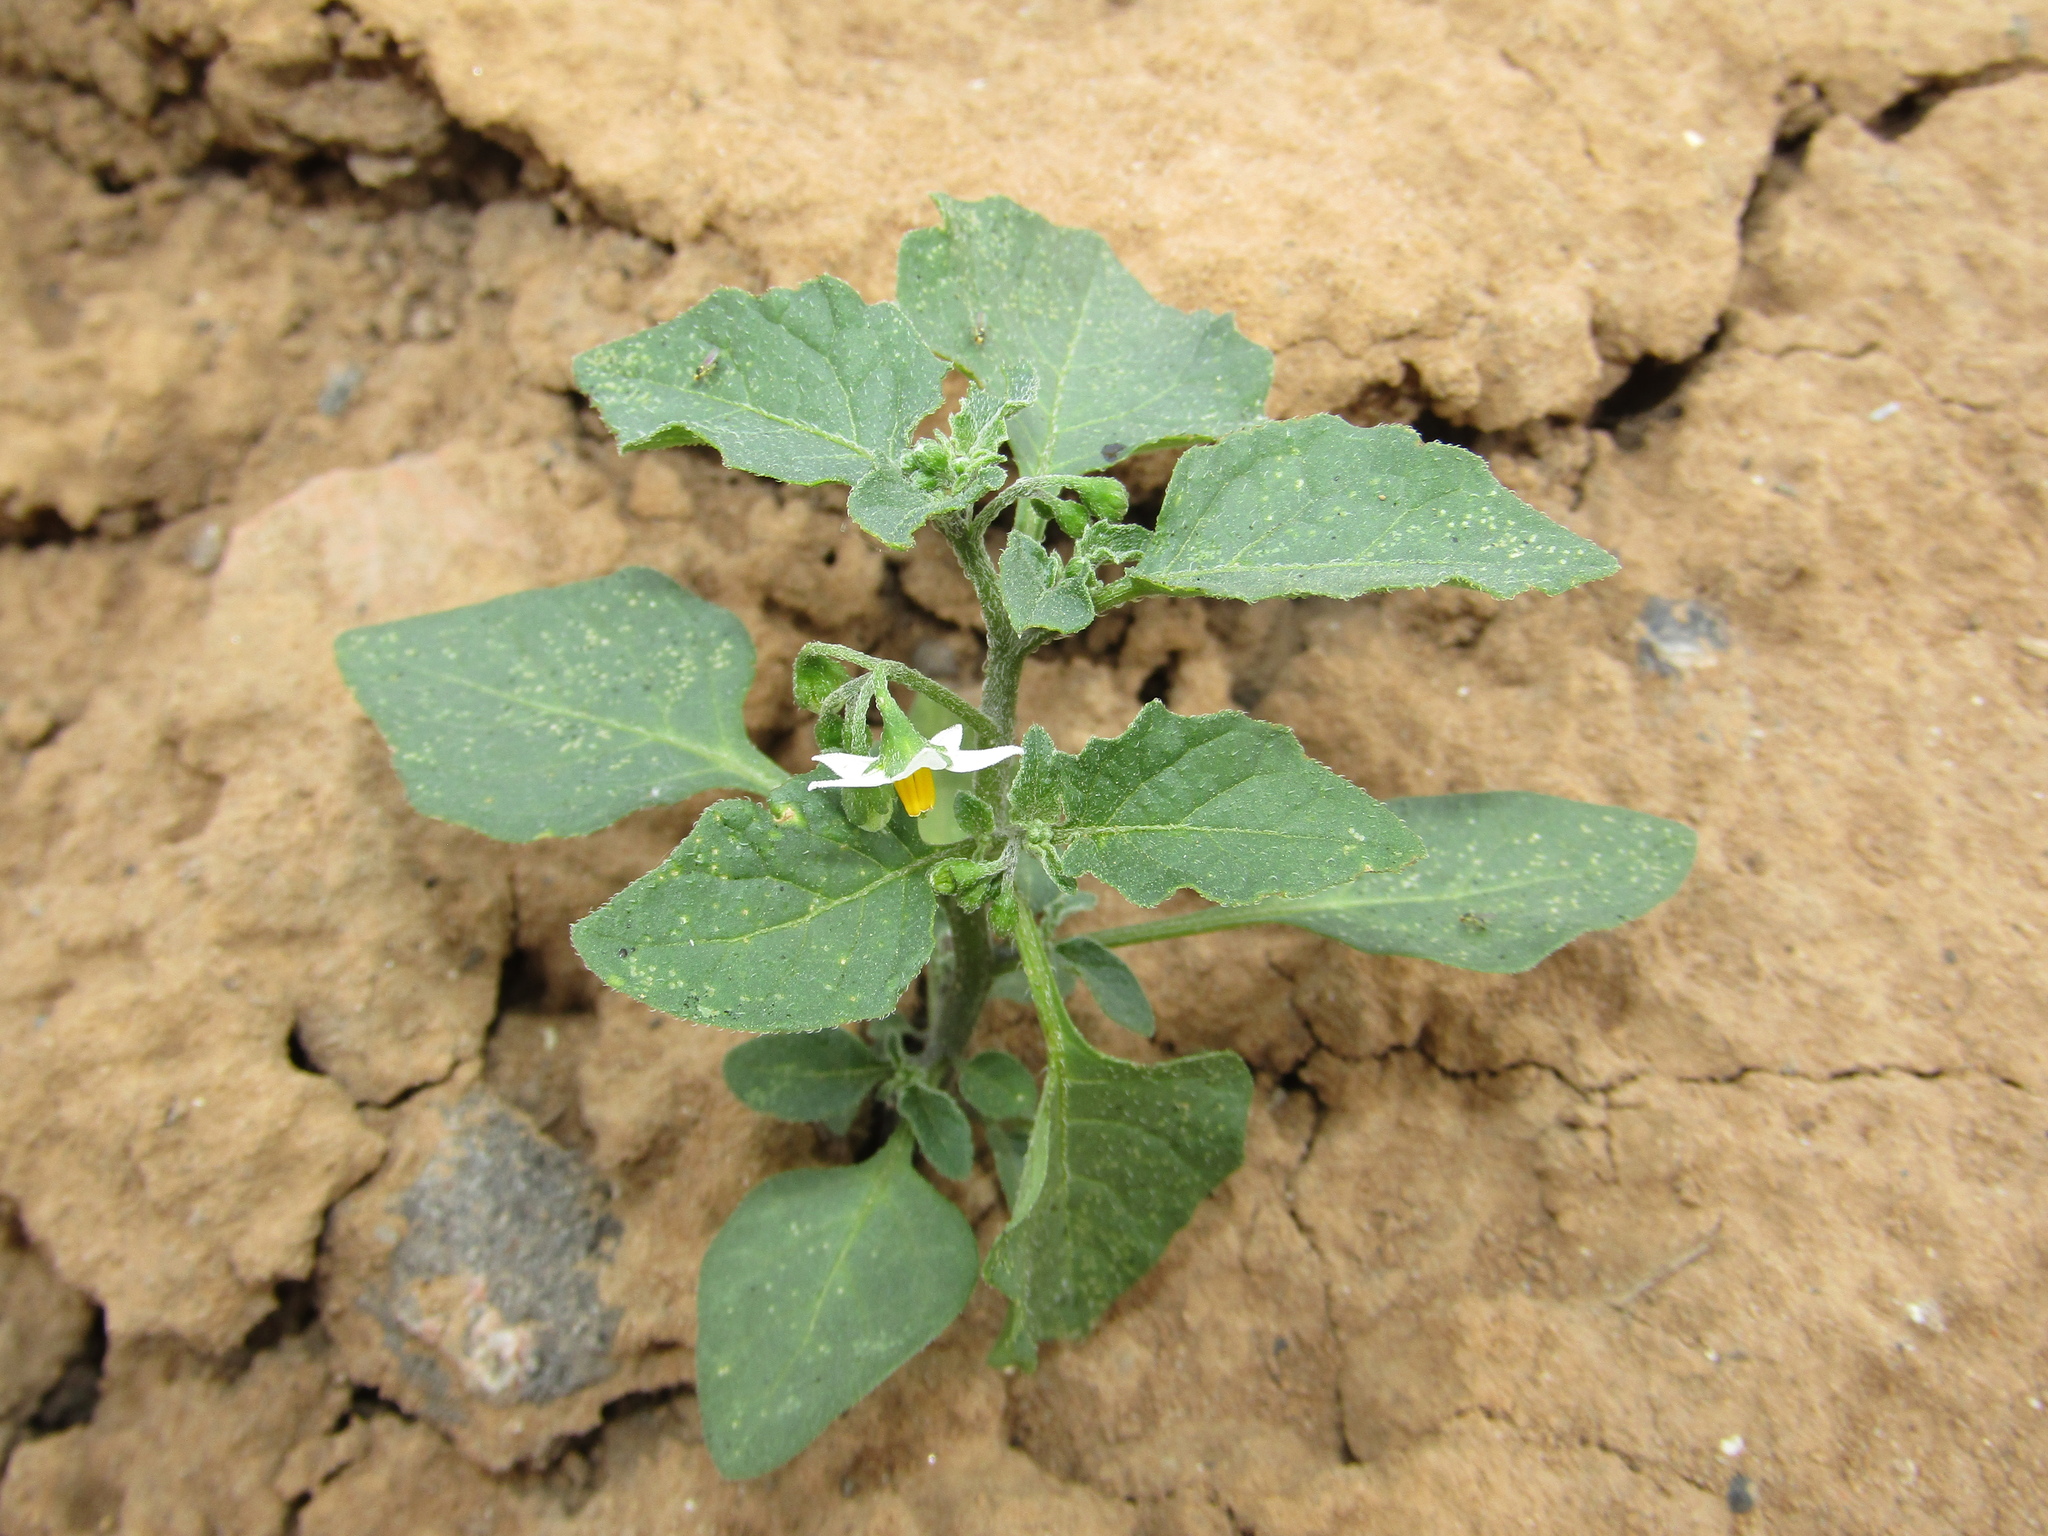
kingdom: Plantae
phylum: Tracheophyta
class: Magnoliopsida
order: Solanales
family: Solanaceae
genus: Solanum
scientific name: Solanum nigrum
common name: Black nightshade
